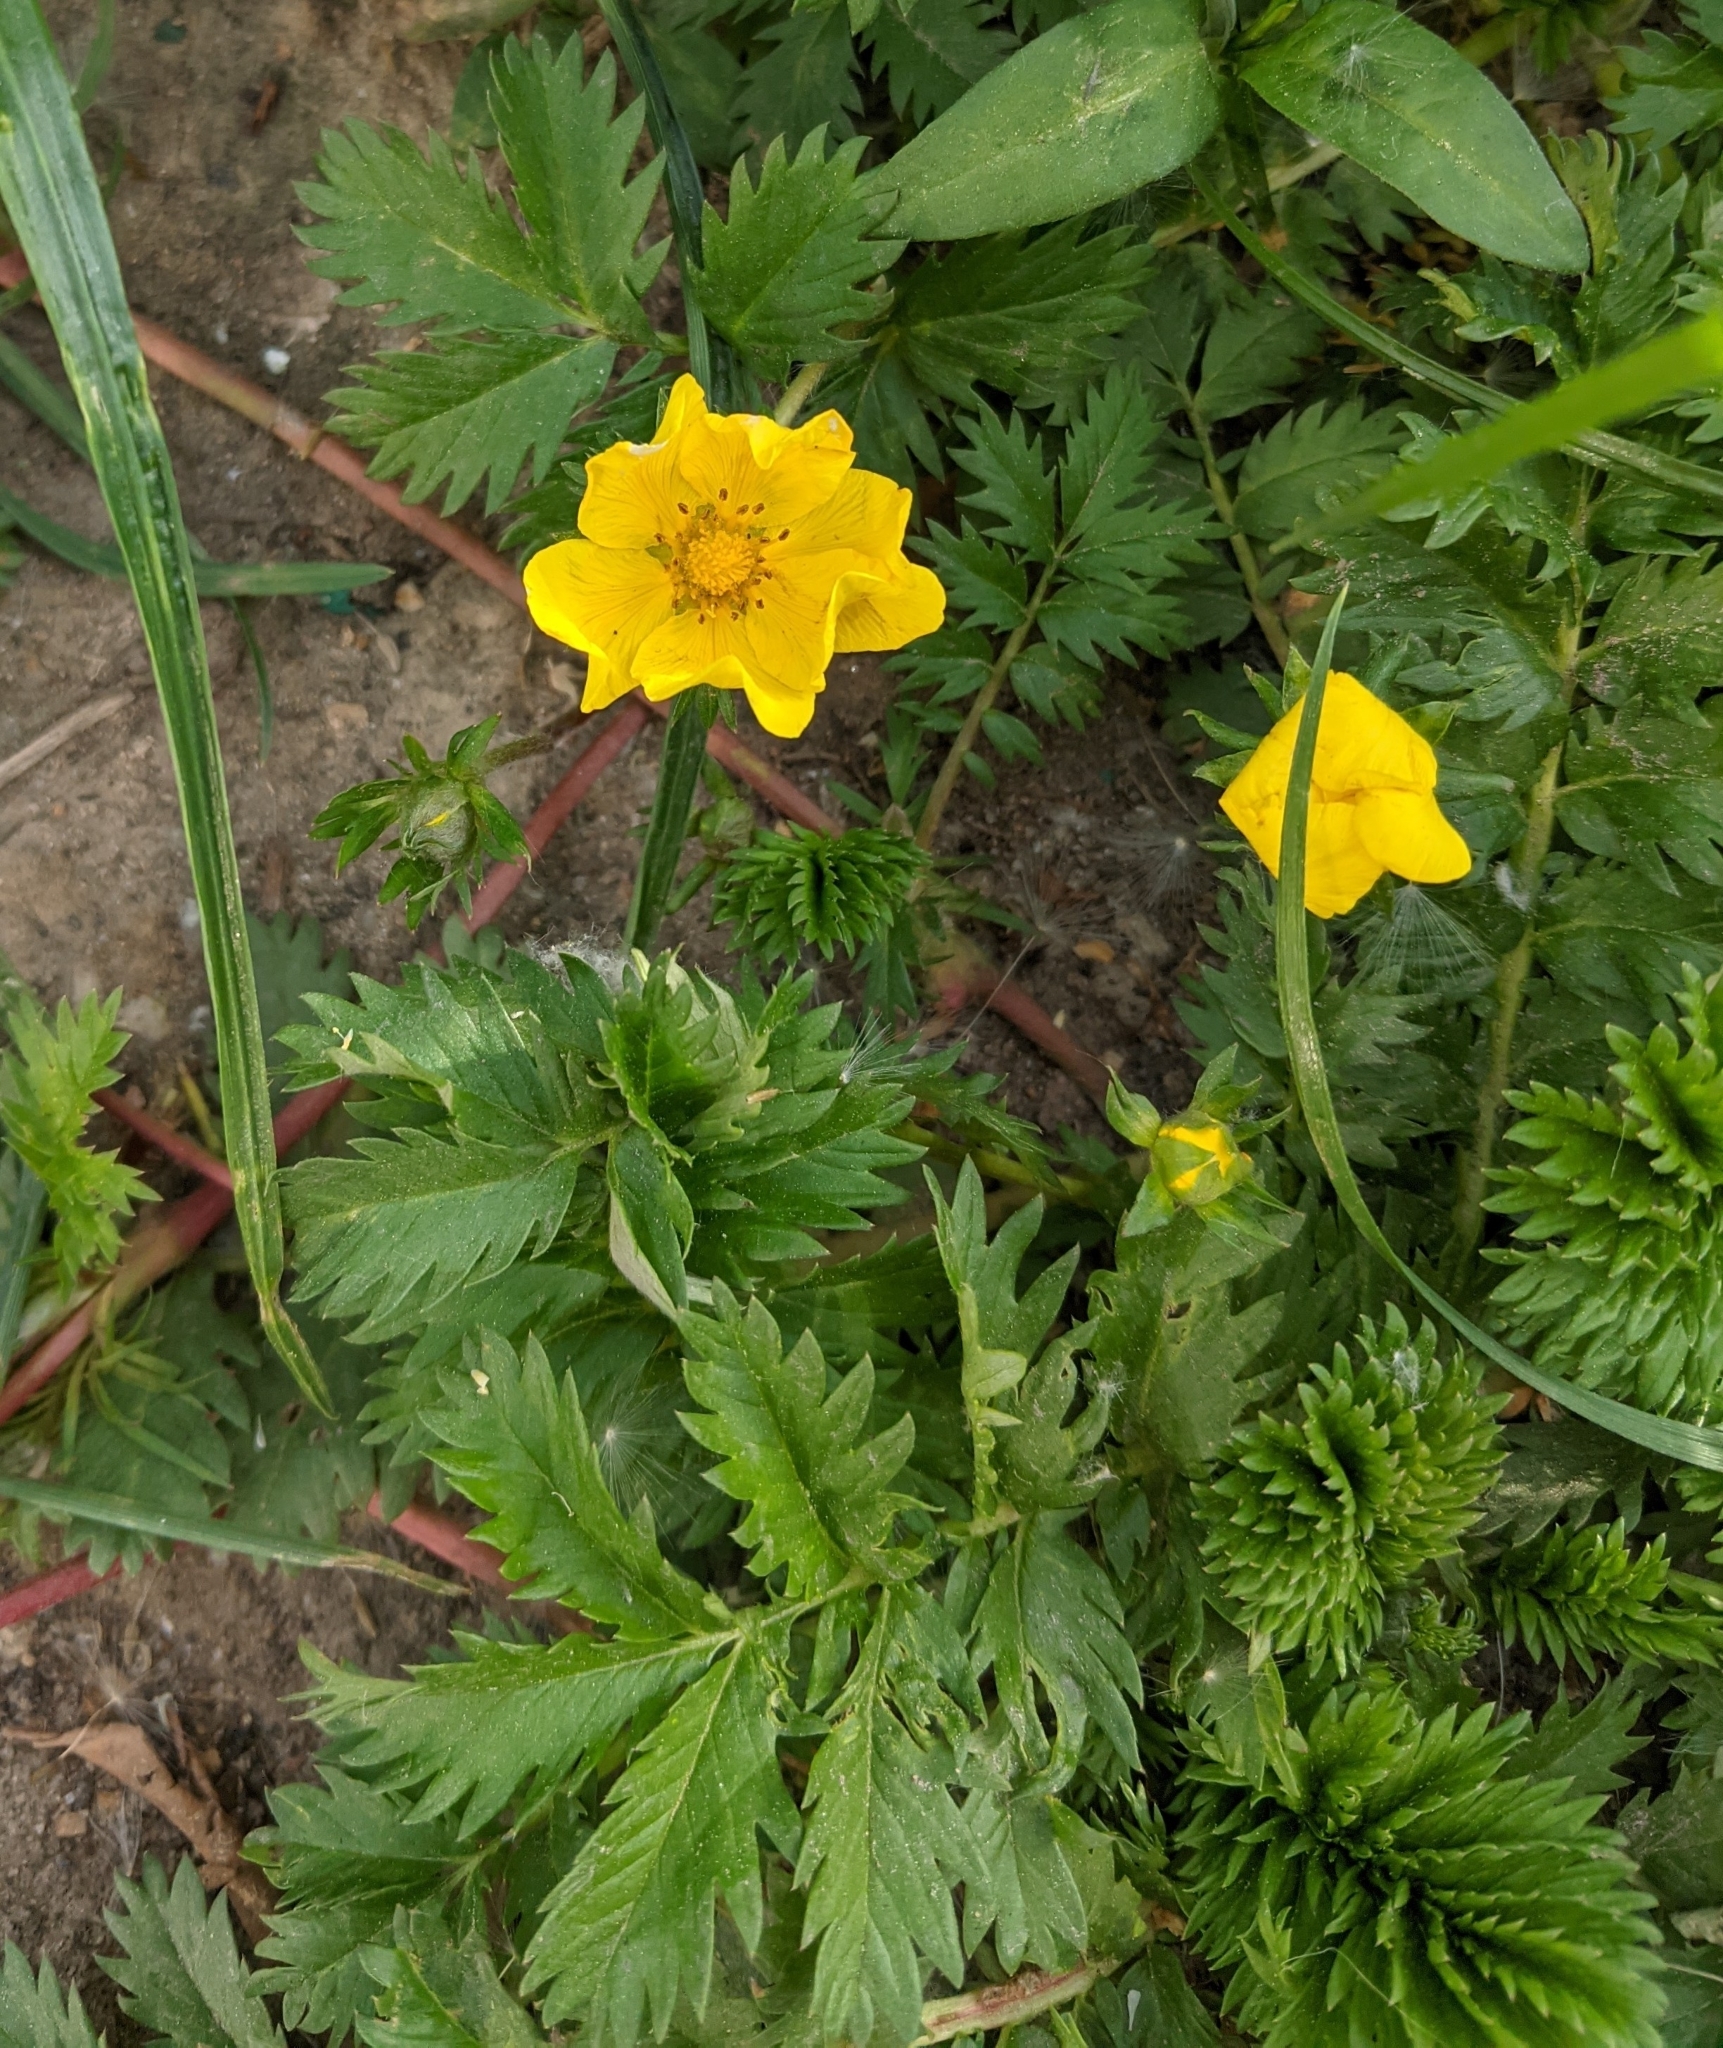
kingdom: Plantae
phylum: Tracheophyta
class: Magnoliopsida
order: Rosales
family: Rosaceae
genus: Argentina
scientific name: Argentina anserina
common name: Common silverweed
